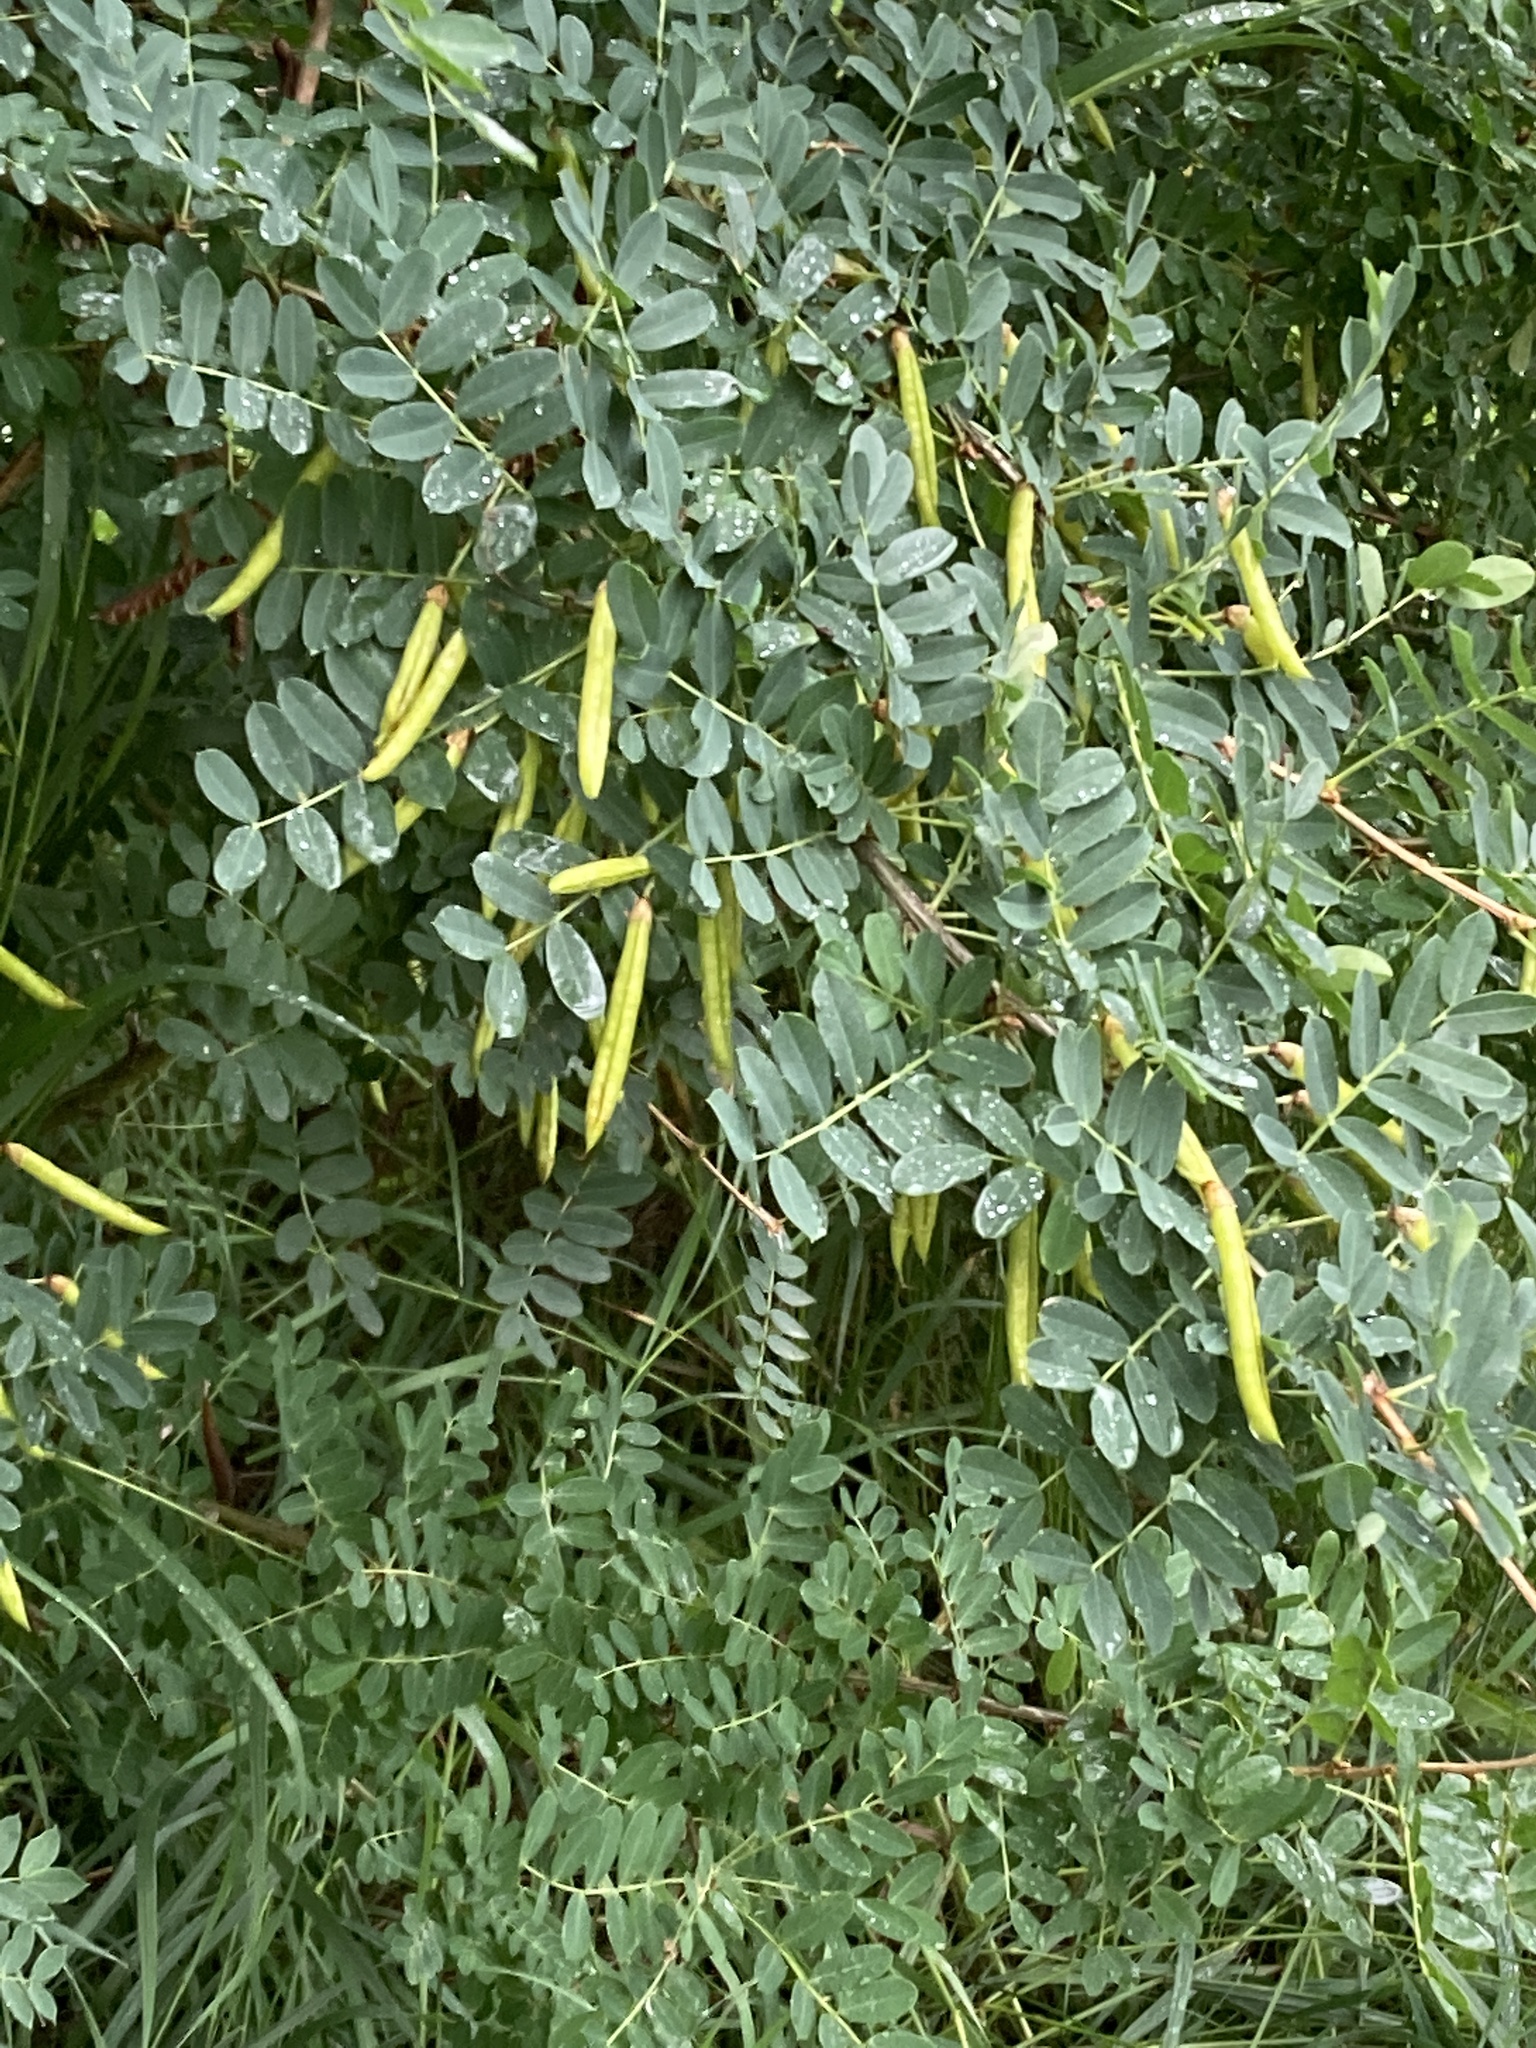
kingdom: Plantae
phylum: Tracheophyta
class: Magnoliopsida
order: Fabales
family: Fabaceae
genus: Caragana
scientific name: Caragana arborescens
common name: Siberian peashrub
